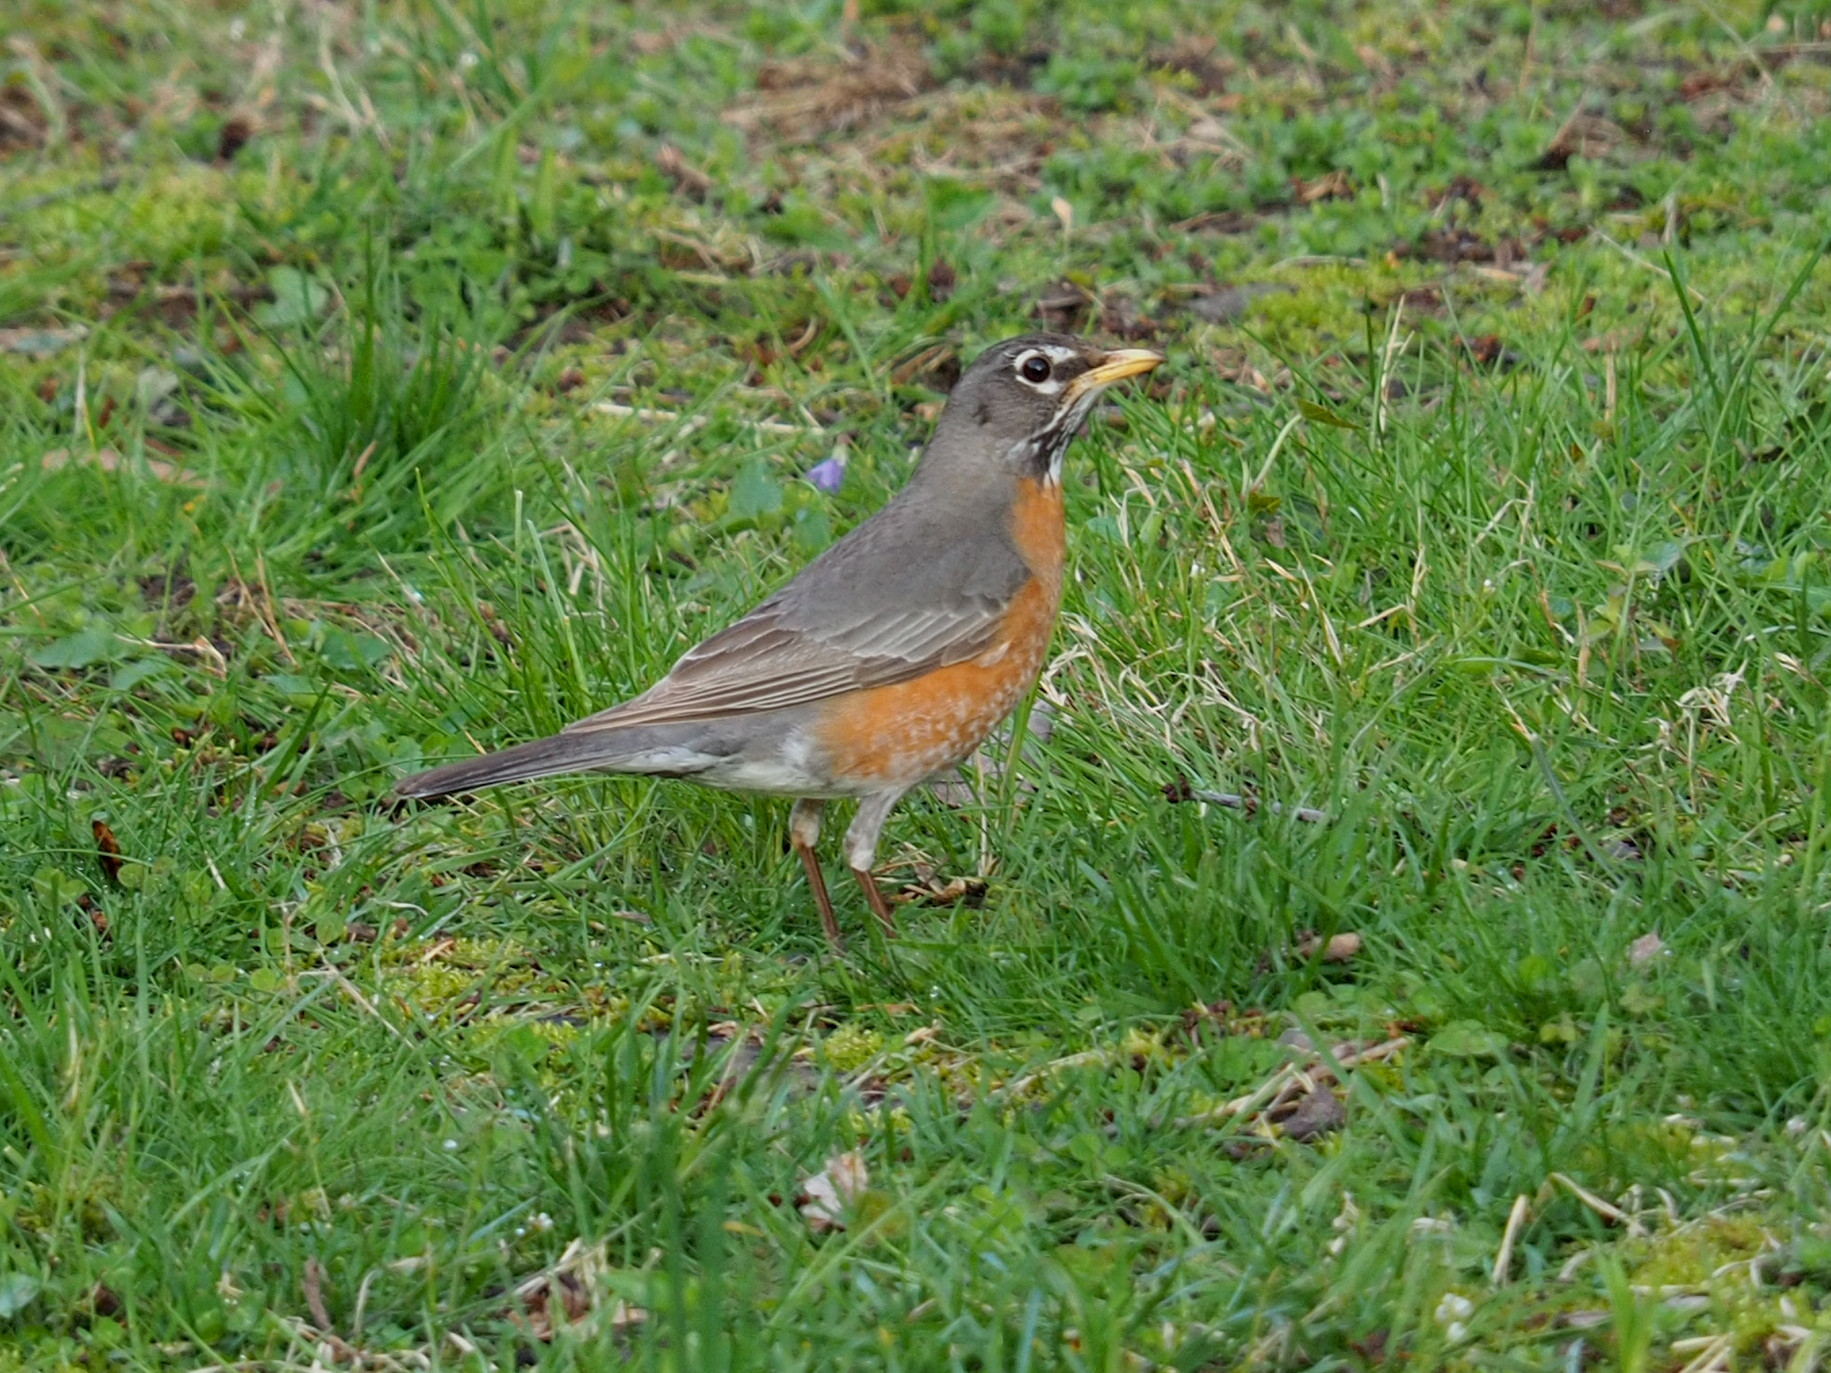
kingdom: Animalia
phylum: Chordata
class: Aves
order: Passeriformes
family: Turdidae
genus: Turdus
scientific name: Turdus migratorius
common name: American robin
